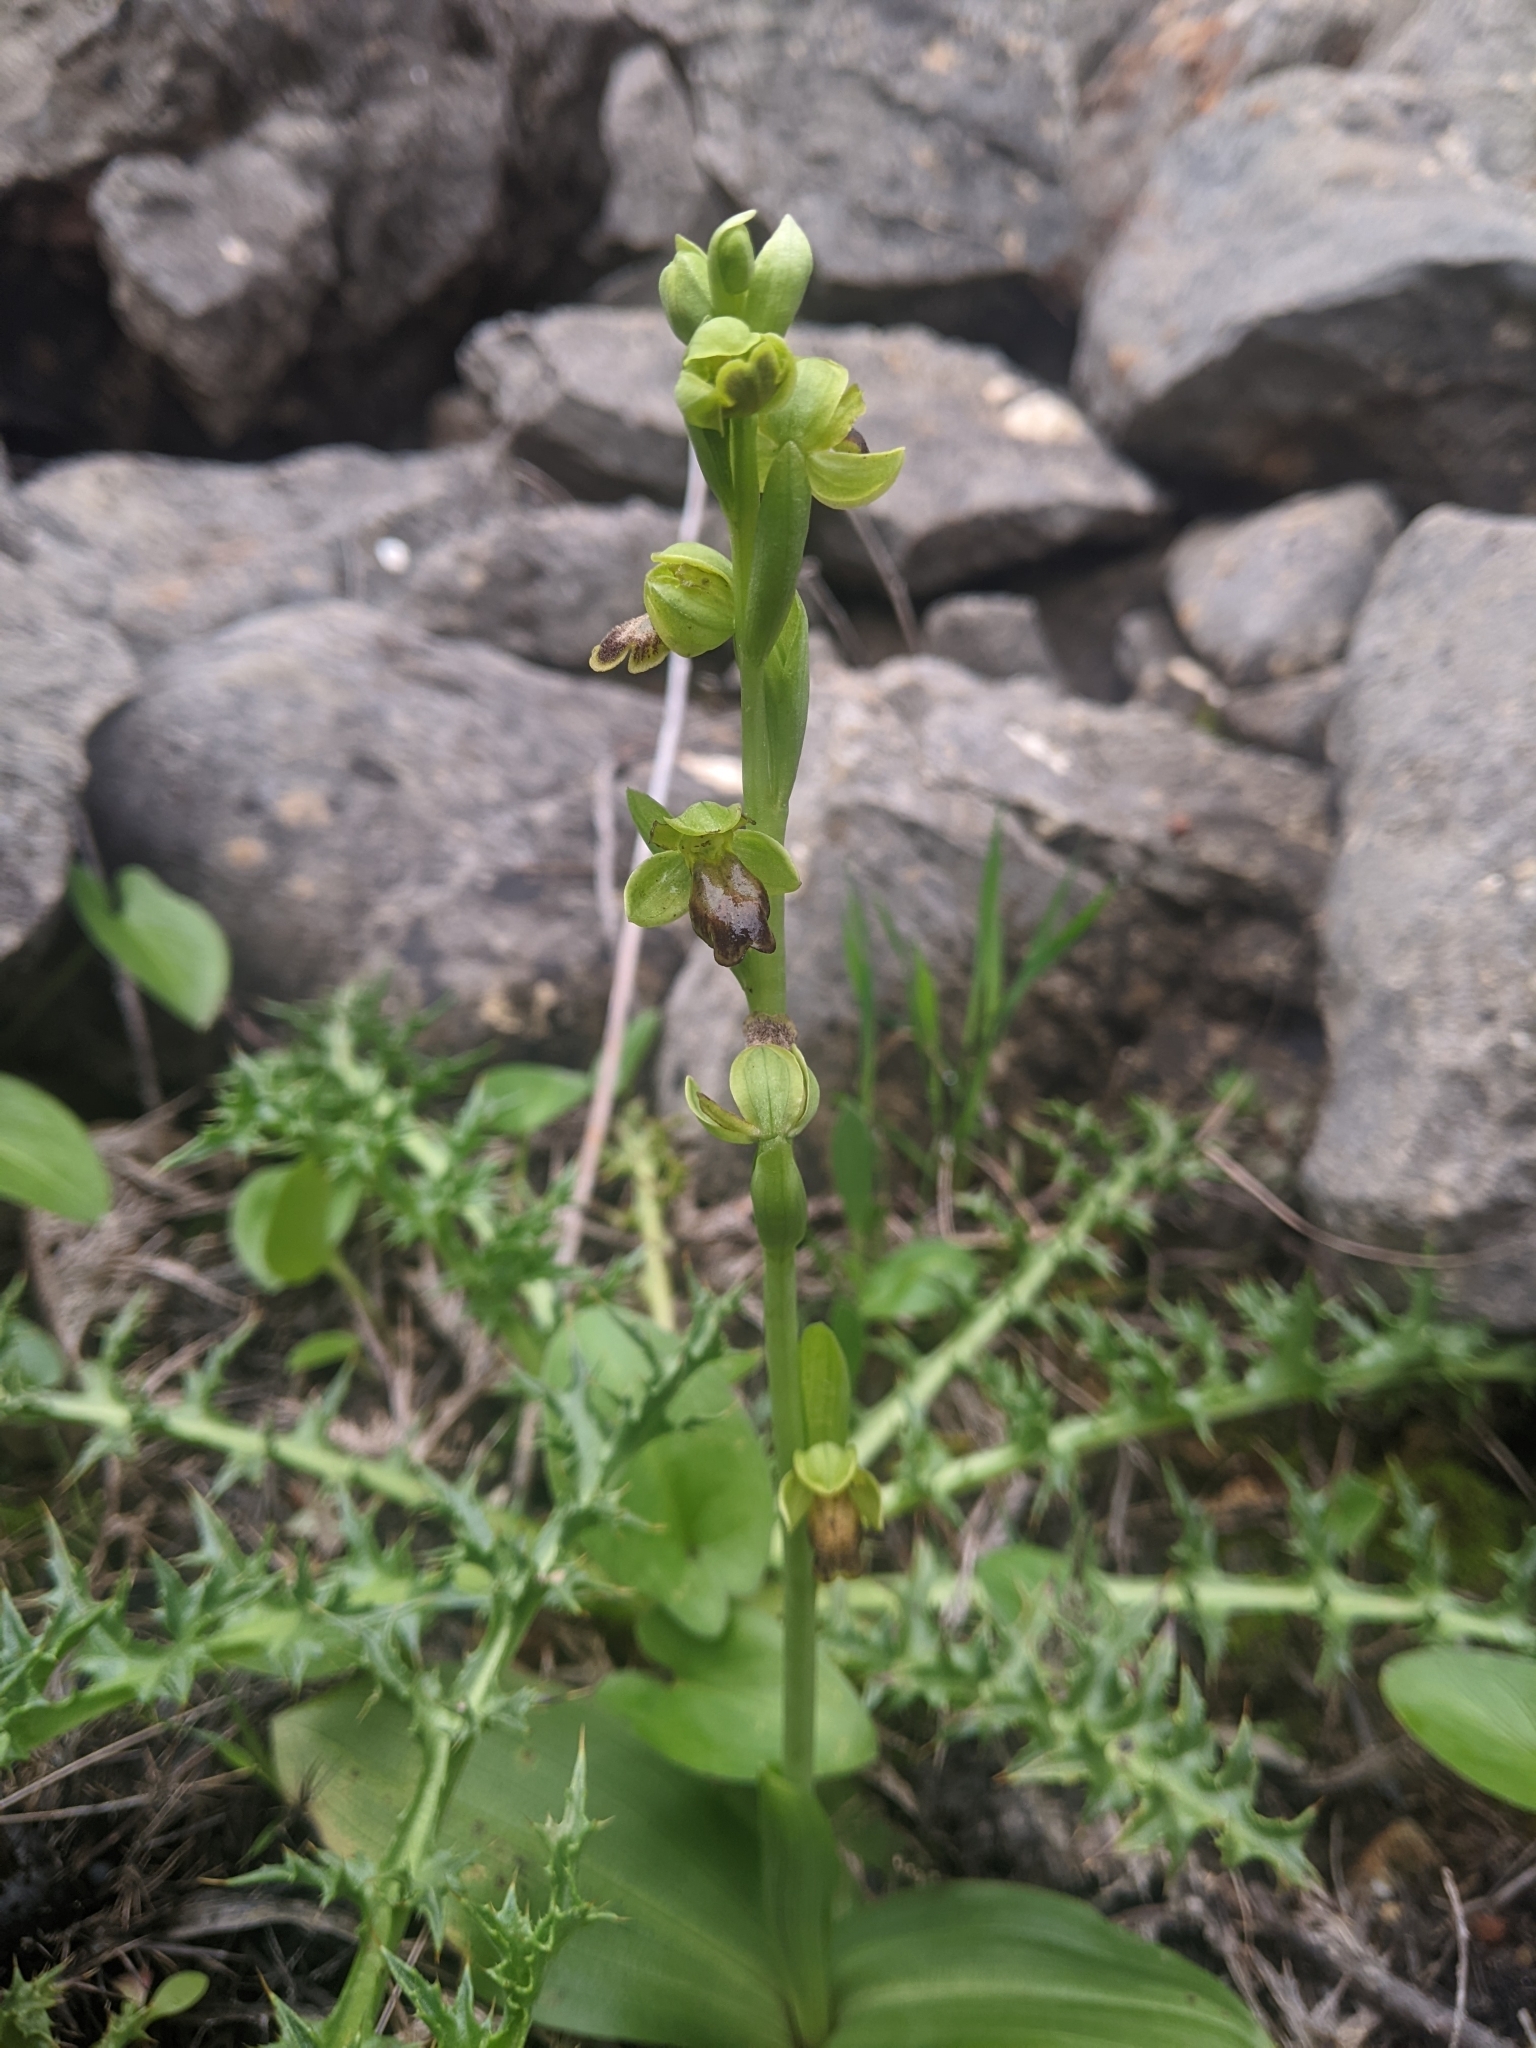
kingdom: Plantae
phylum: Tracheophyta
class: Liliopsida
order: Asparagales
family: Orchidaceae
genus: Ophrys
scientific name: Ophrys fusca
